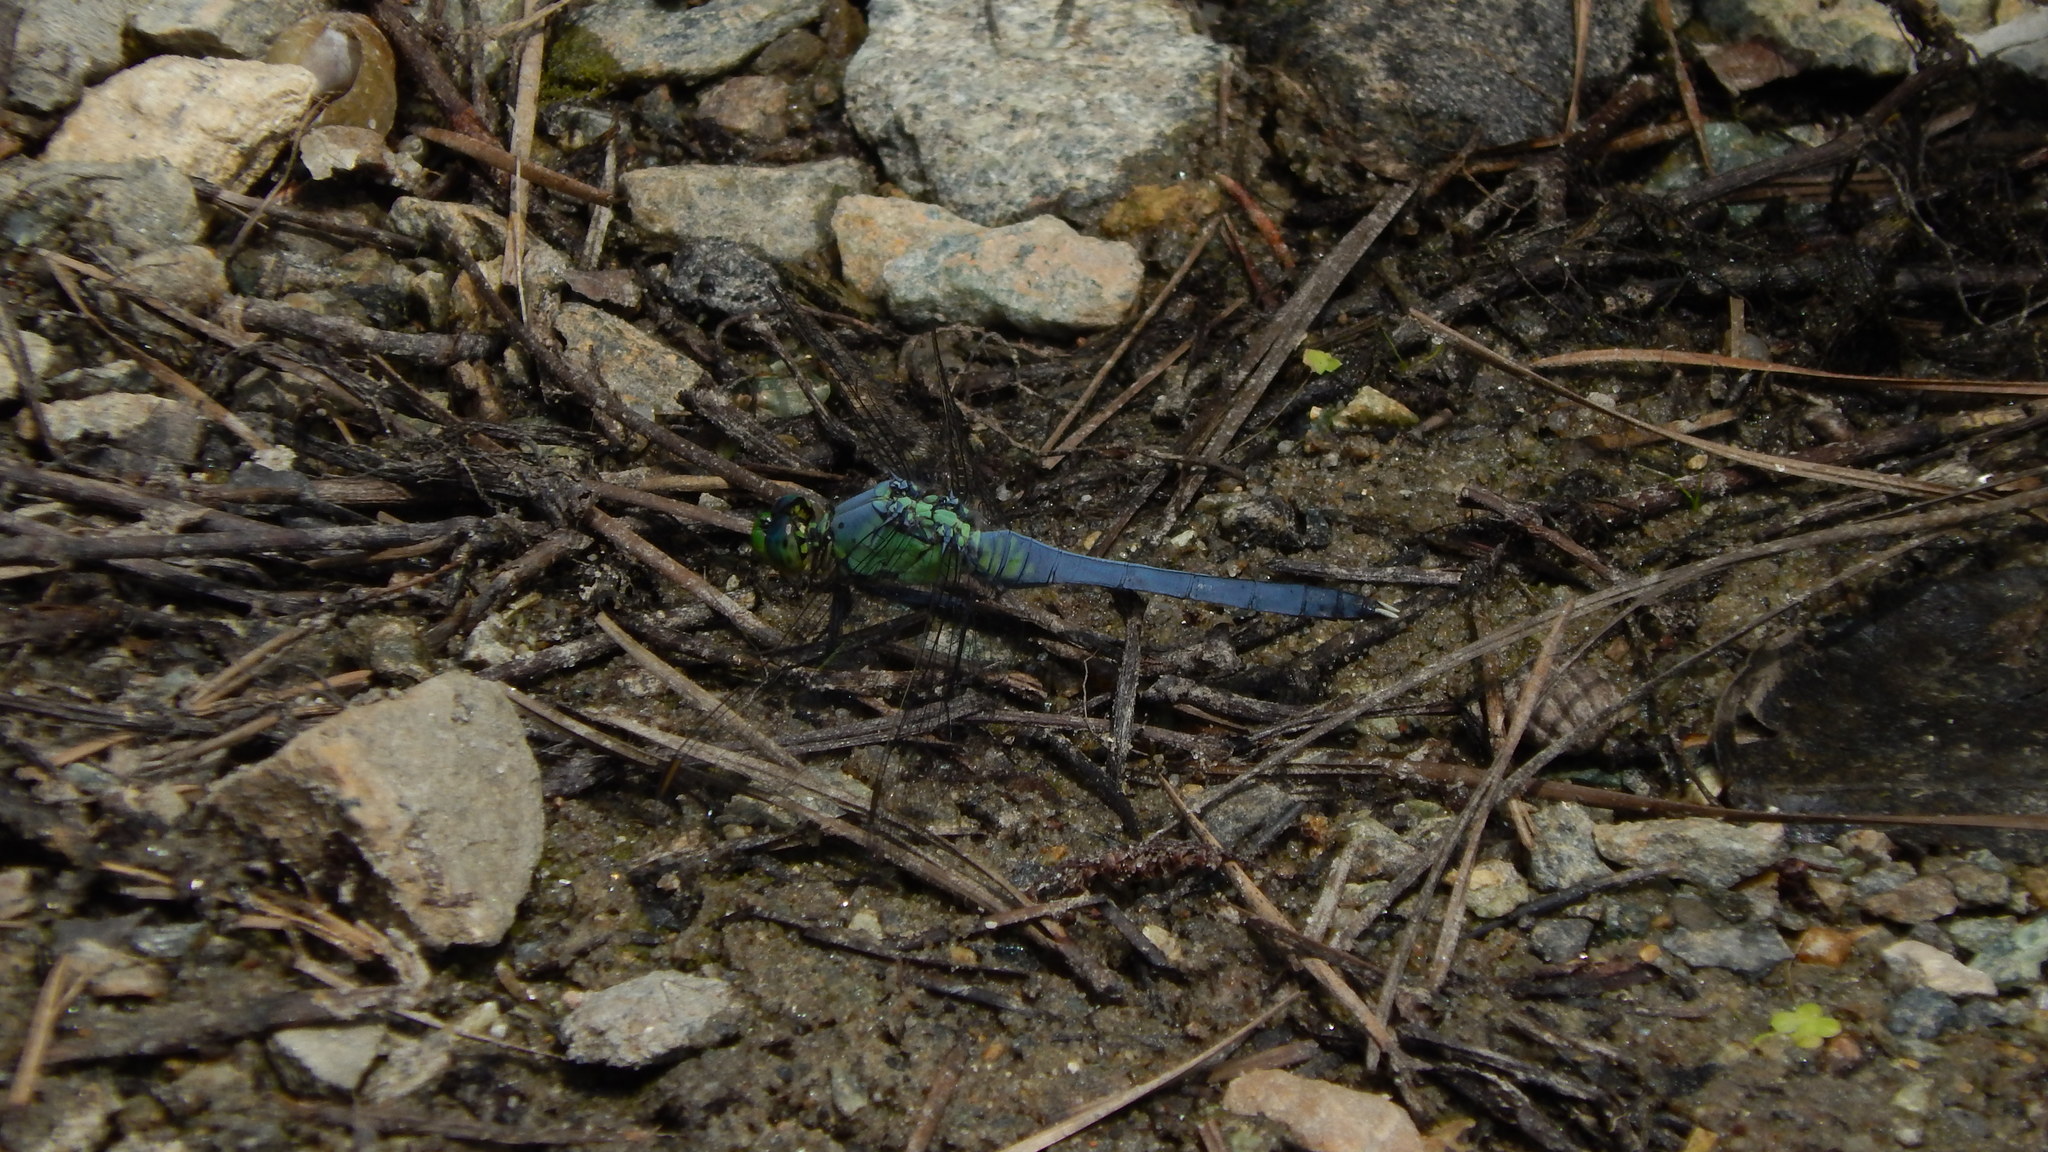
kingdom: Animalia
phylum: Arthropoda
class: Insecta
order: Odonata
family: Libellulidae
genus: Erythemis
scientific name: Erythemis simplicicollis
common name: Eastern pondhawk
